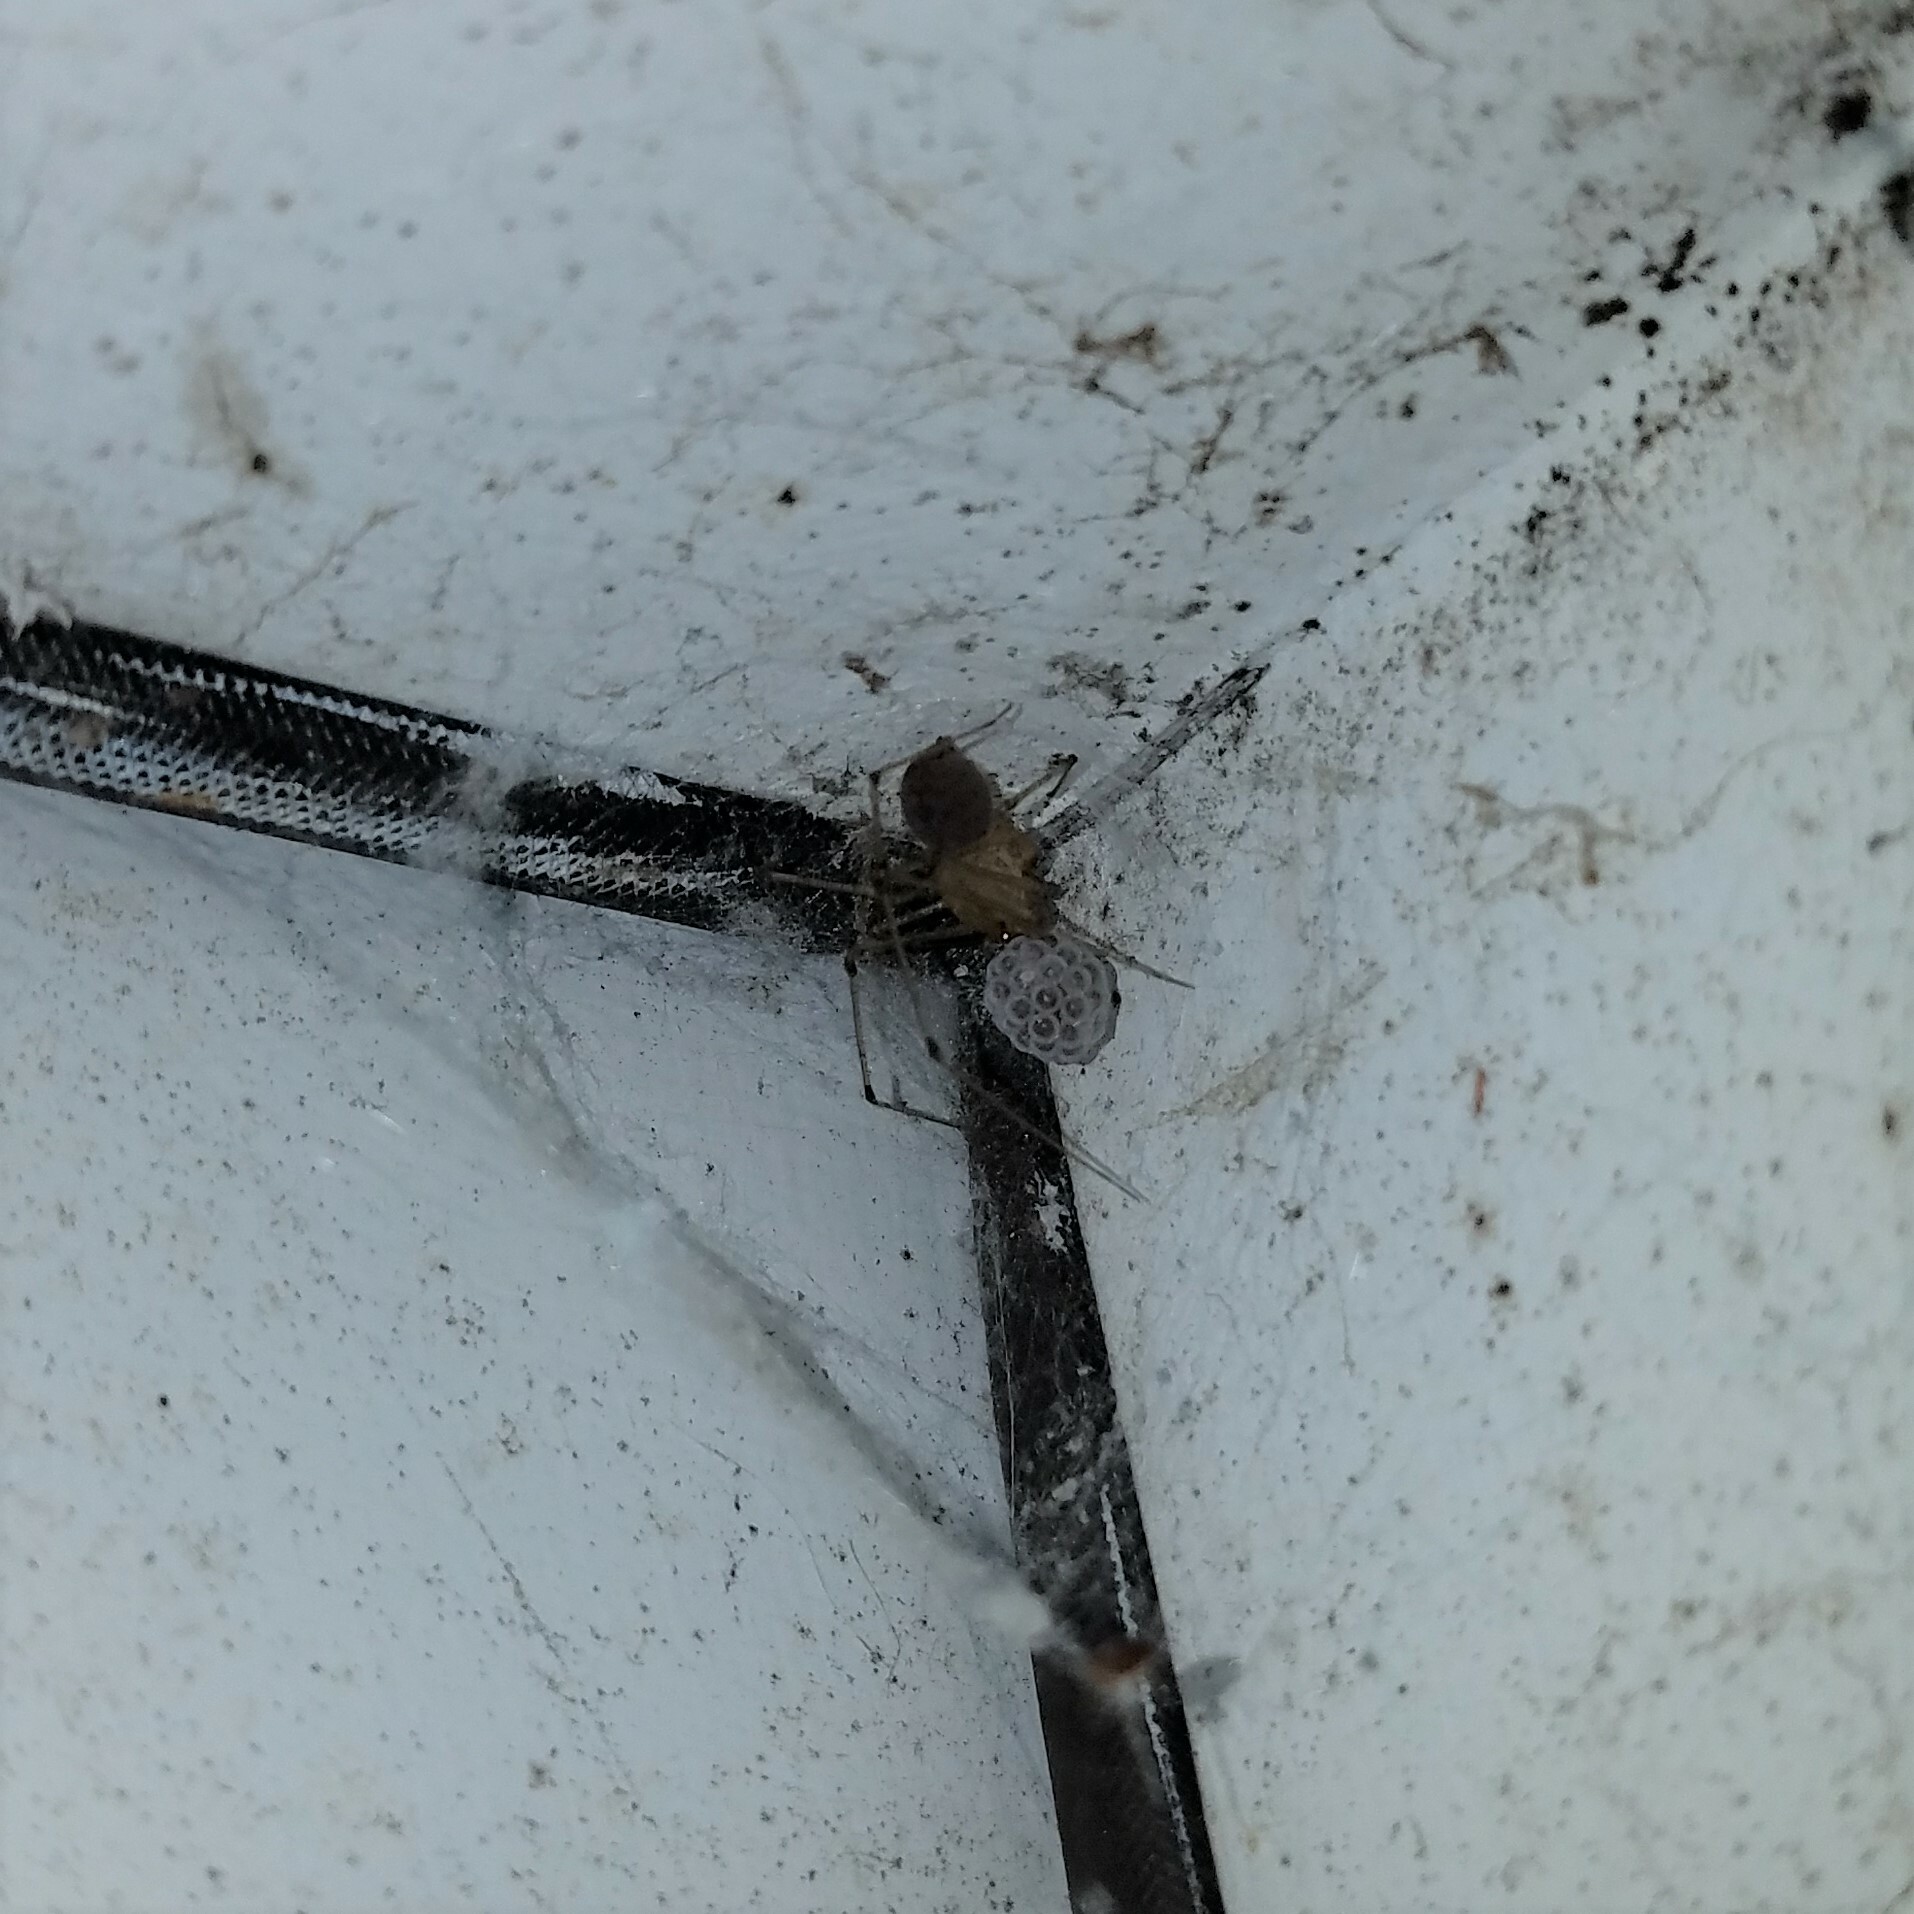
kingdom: Animalia
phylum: Arthropoda
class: Arachnida
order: Araneae
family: Scytodidae
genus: Scytodes
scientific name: Scytodes atlacoya
